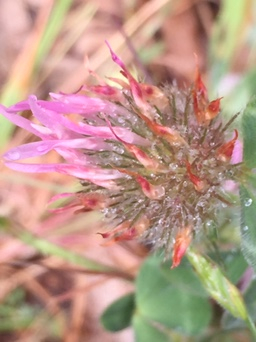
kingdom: Plantae
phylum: Tracheophyta
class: Magnoliopsida
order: Fabales
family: Fabaceae
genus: Trifolium
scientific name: Trifolium hirtum
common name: Rose clover
